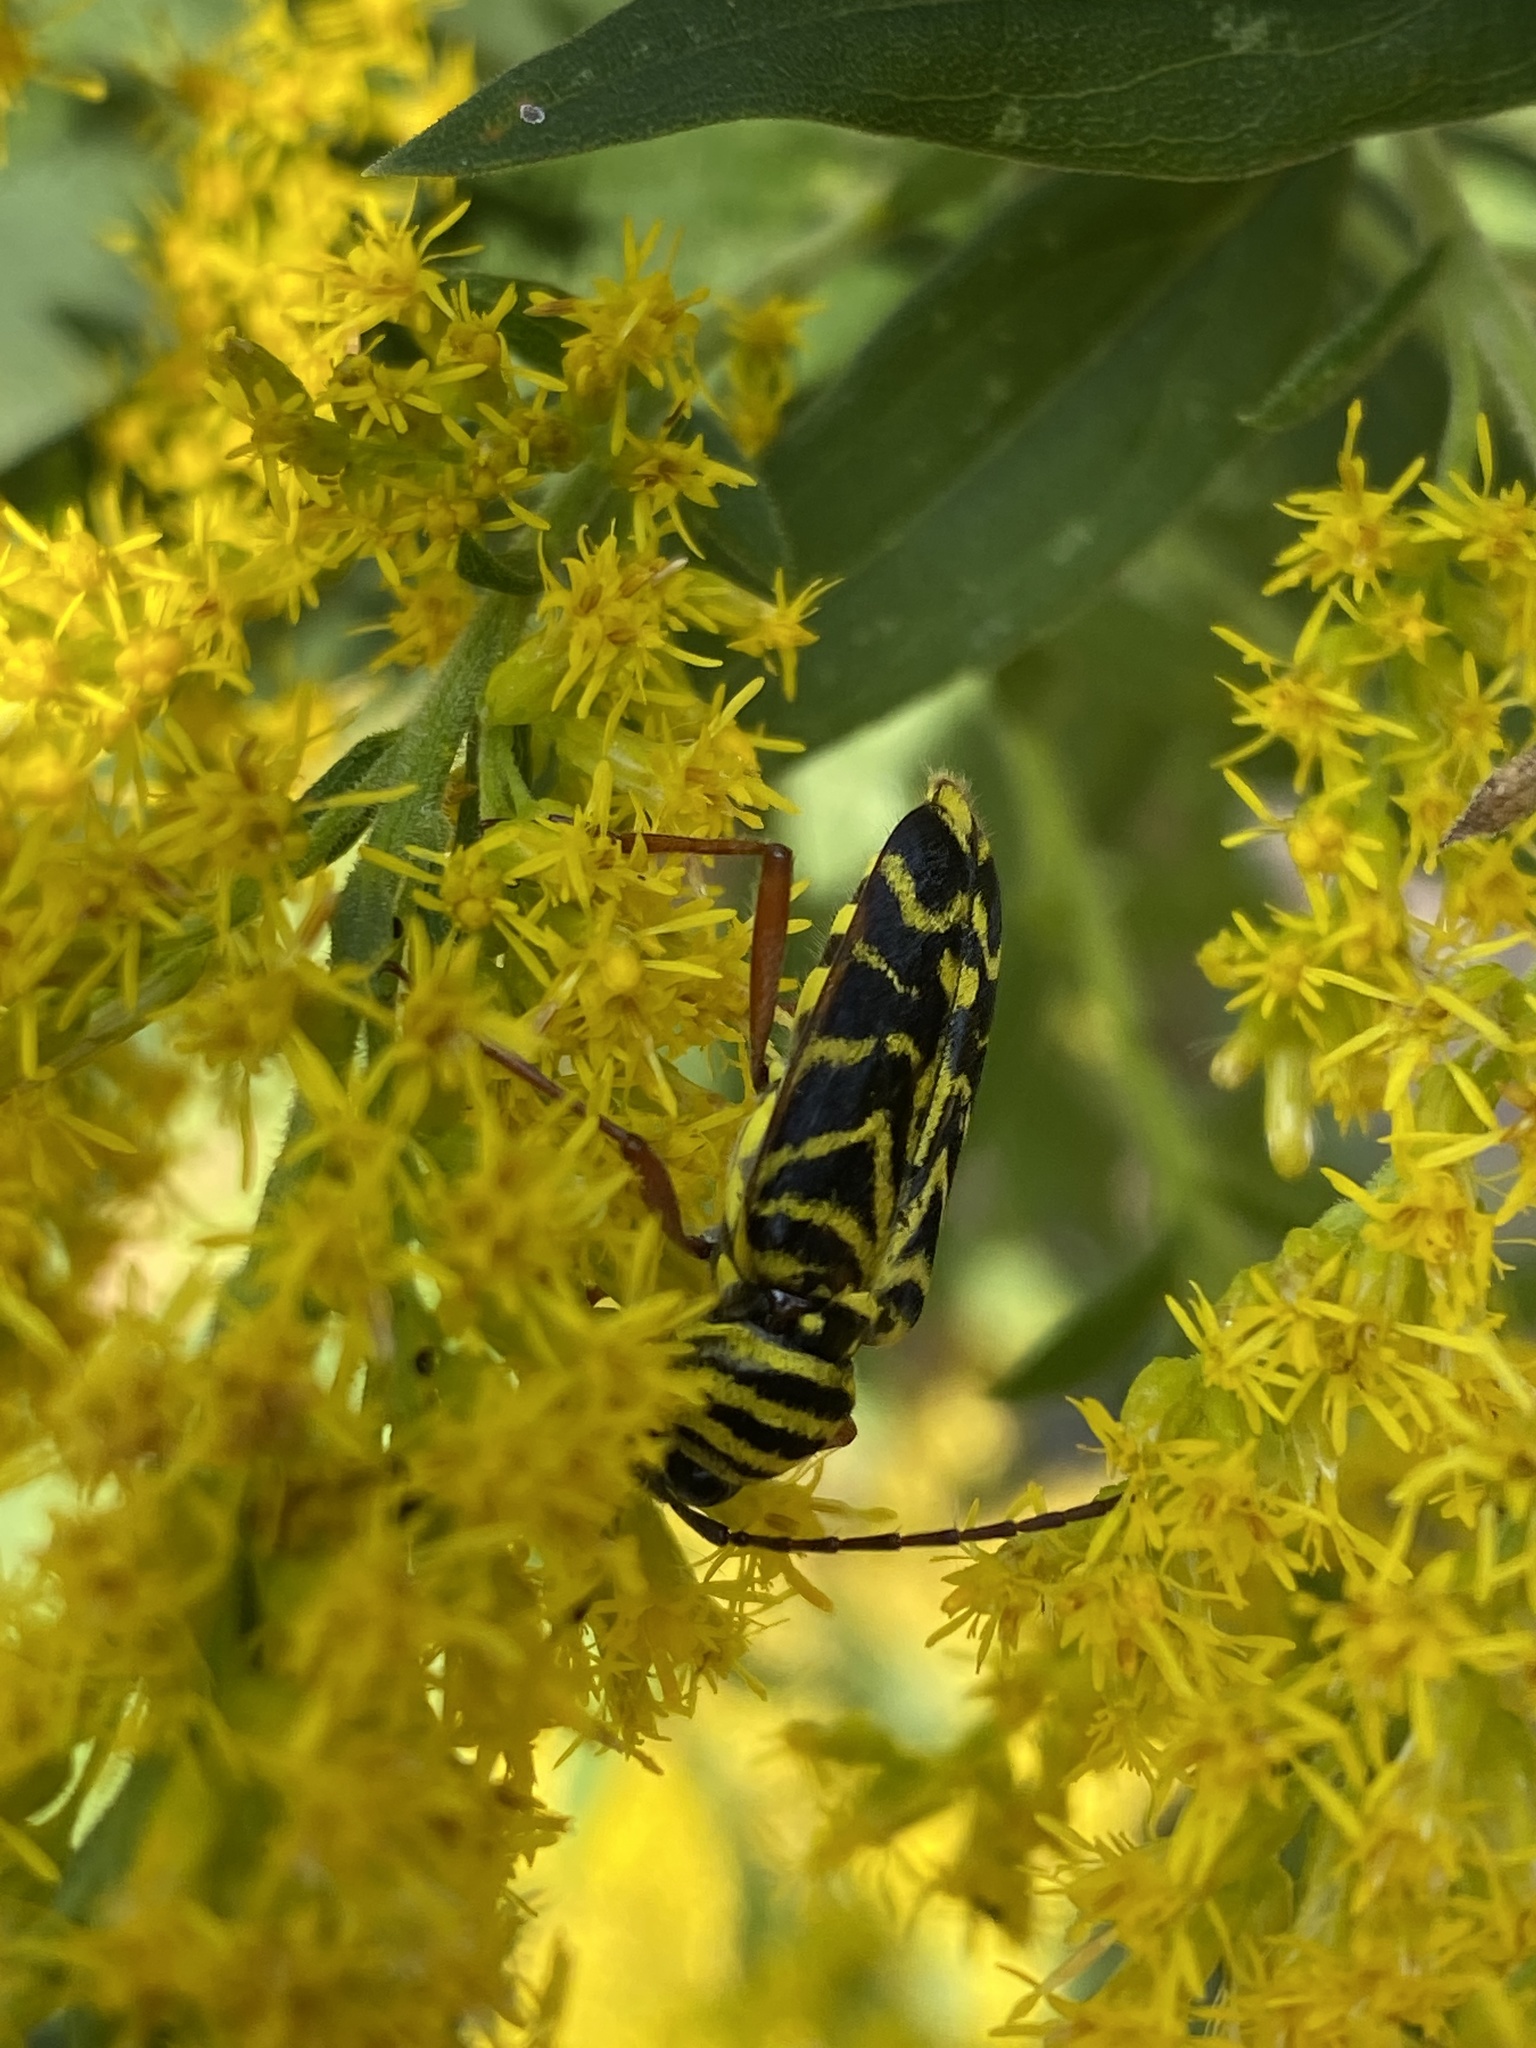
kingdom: Animalia
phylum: Arthropoda
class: Insecta
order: Coleoptera
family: Cerambycidae
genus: Megacyllene
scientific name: Megacyllene robiniae
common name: Locust borer
